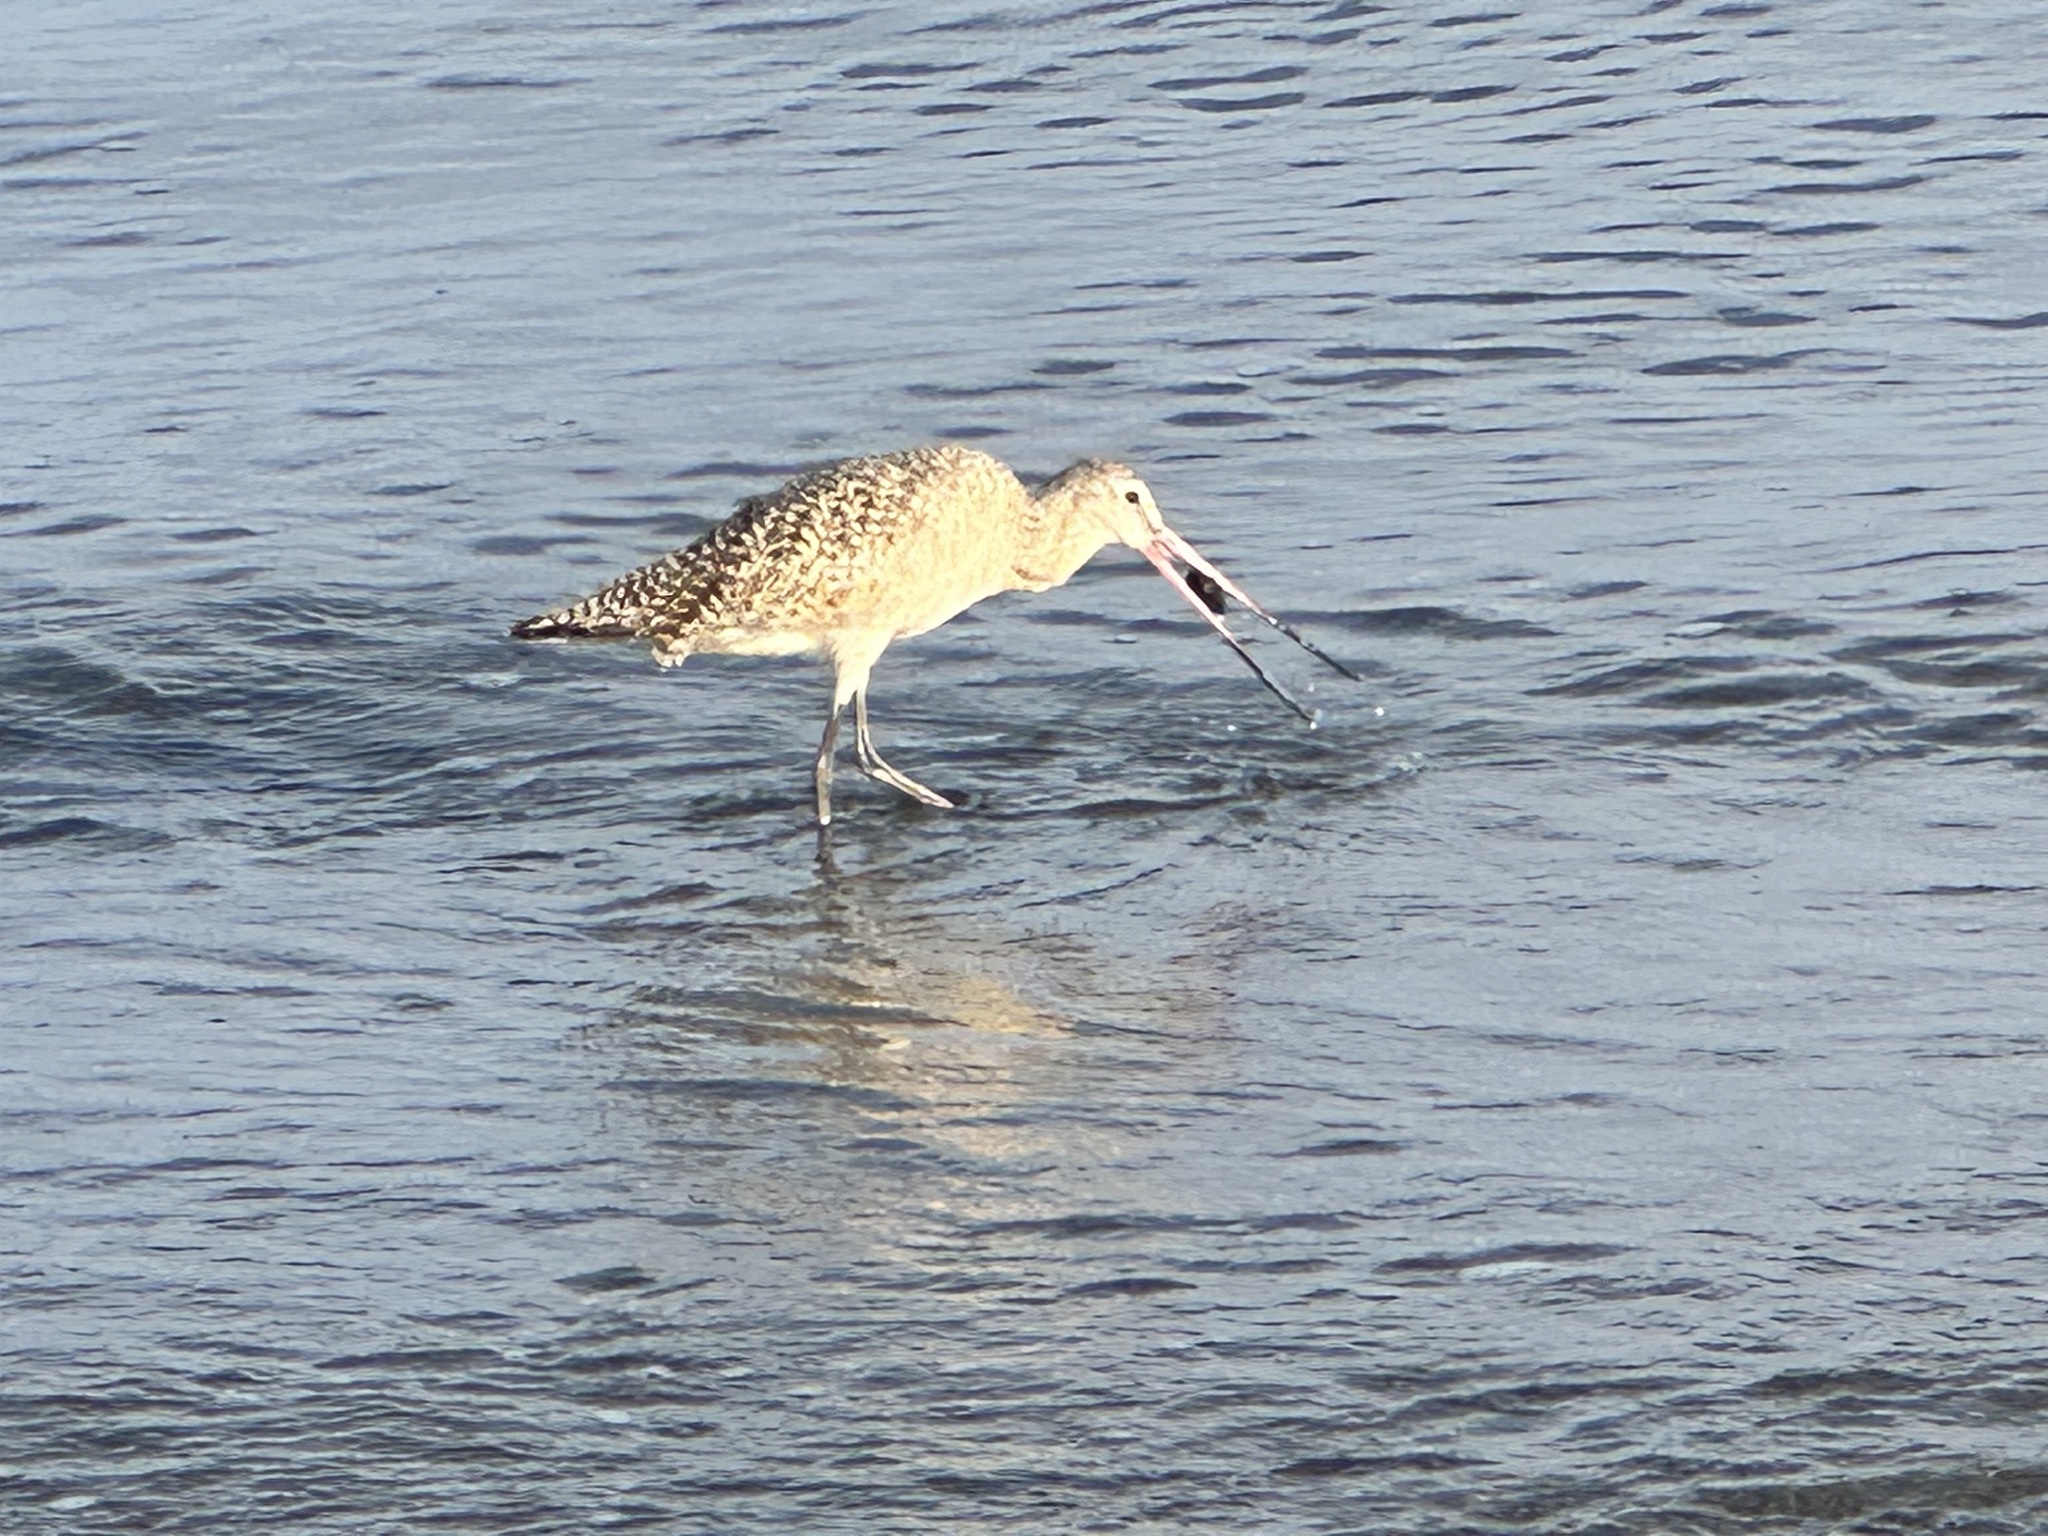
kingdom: Animalia
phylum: Chordata
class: Aves
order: Charadriiformes
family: Scolopacidae
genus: Limosa
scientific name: Limosa fedoa
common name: Marbled godwit
